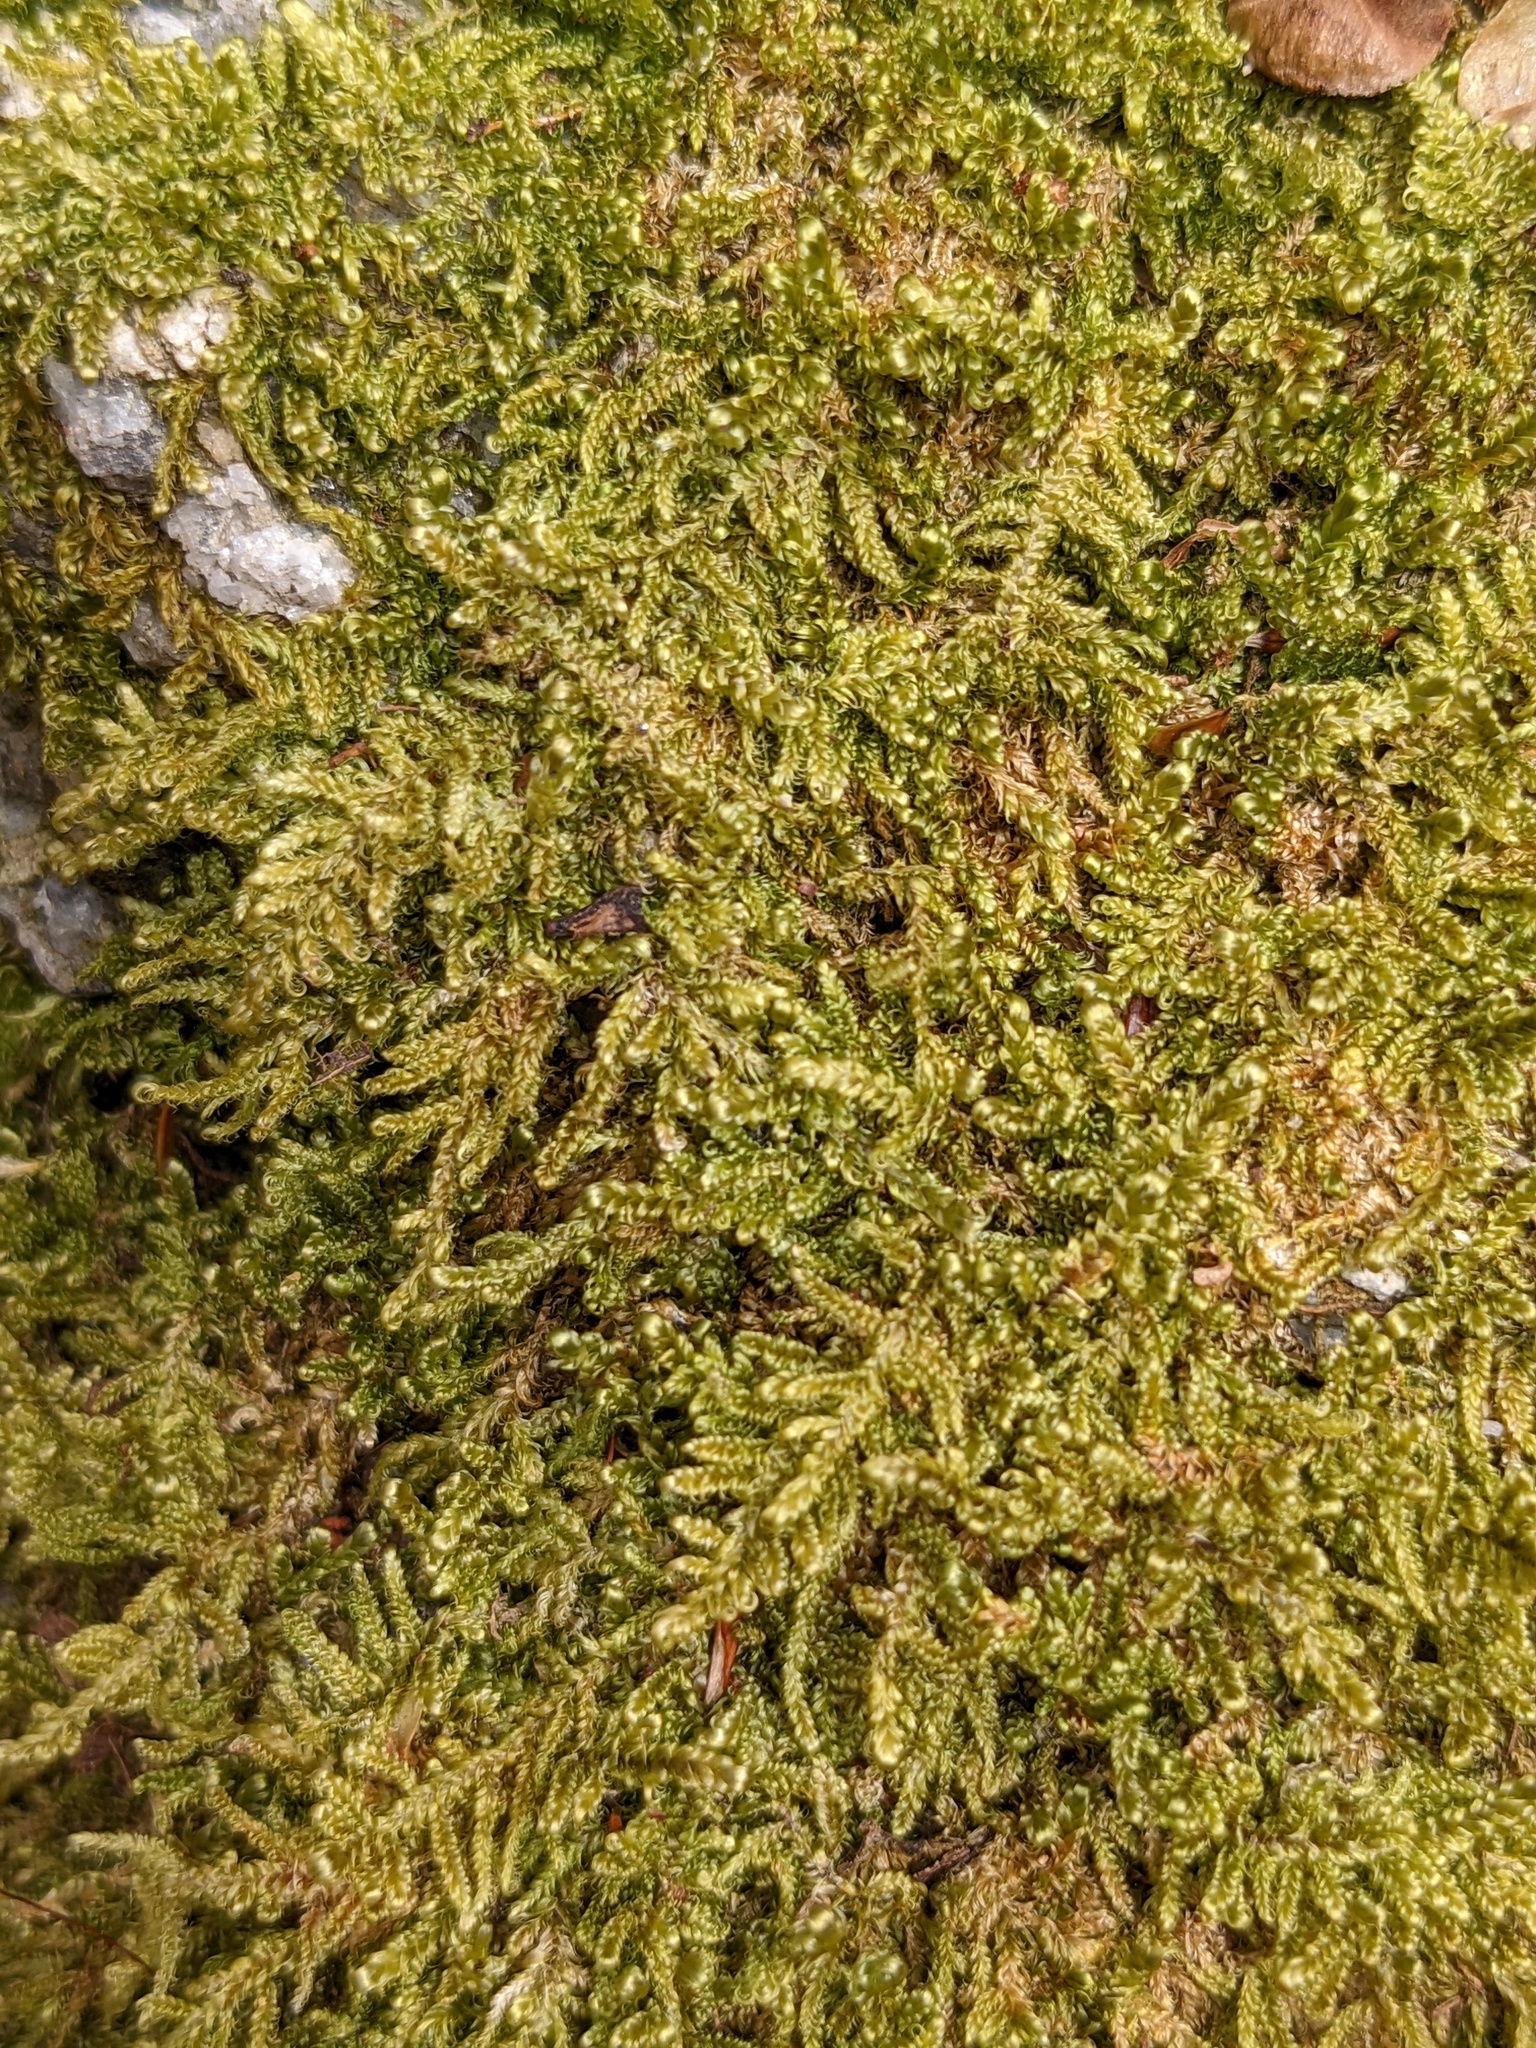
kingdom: Plantae
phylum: Bryophyta
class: Bryopsida
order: Hypnales
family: Callicladiaceae
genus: Callicladium
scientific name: Callicladium imponens
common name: Brocade moss
